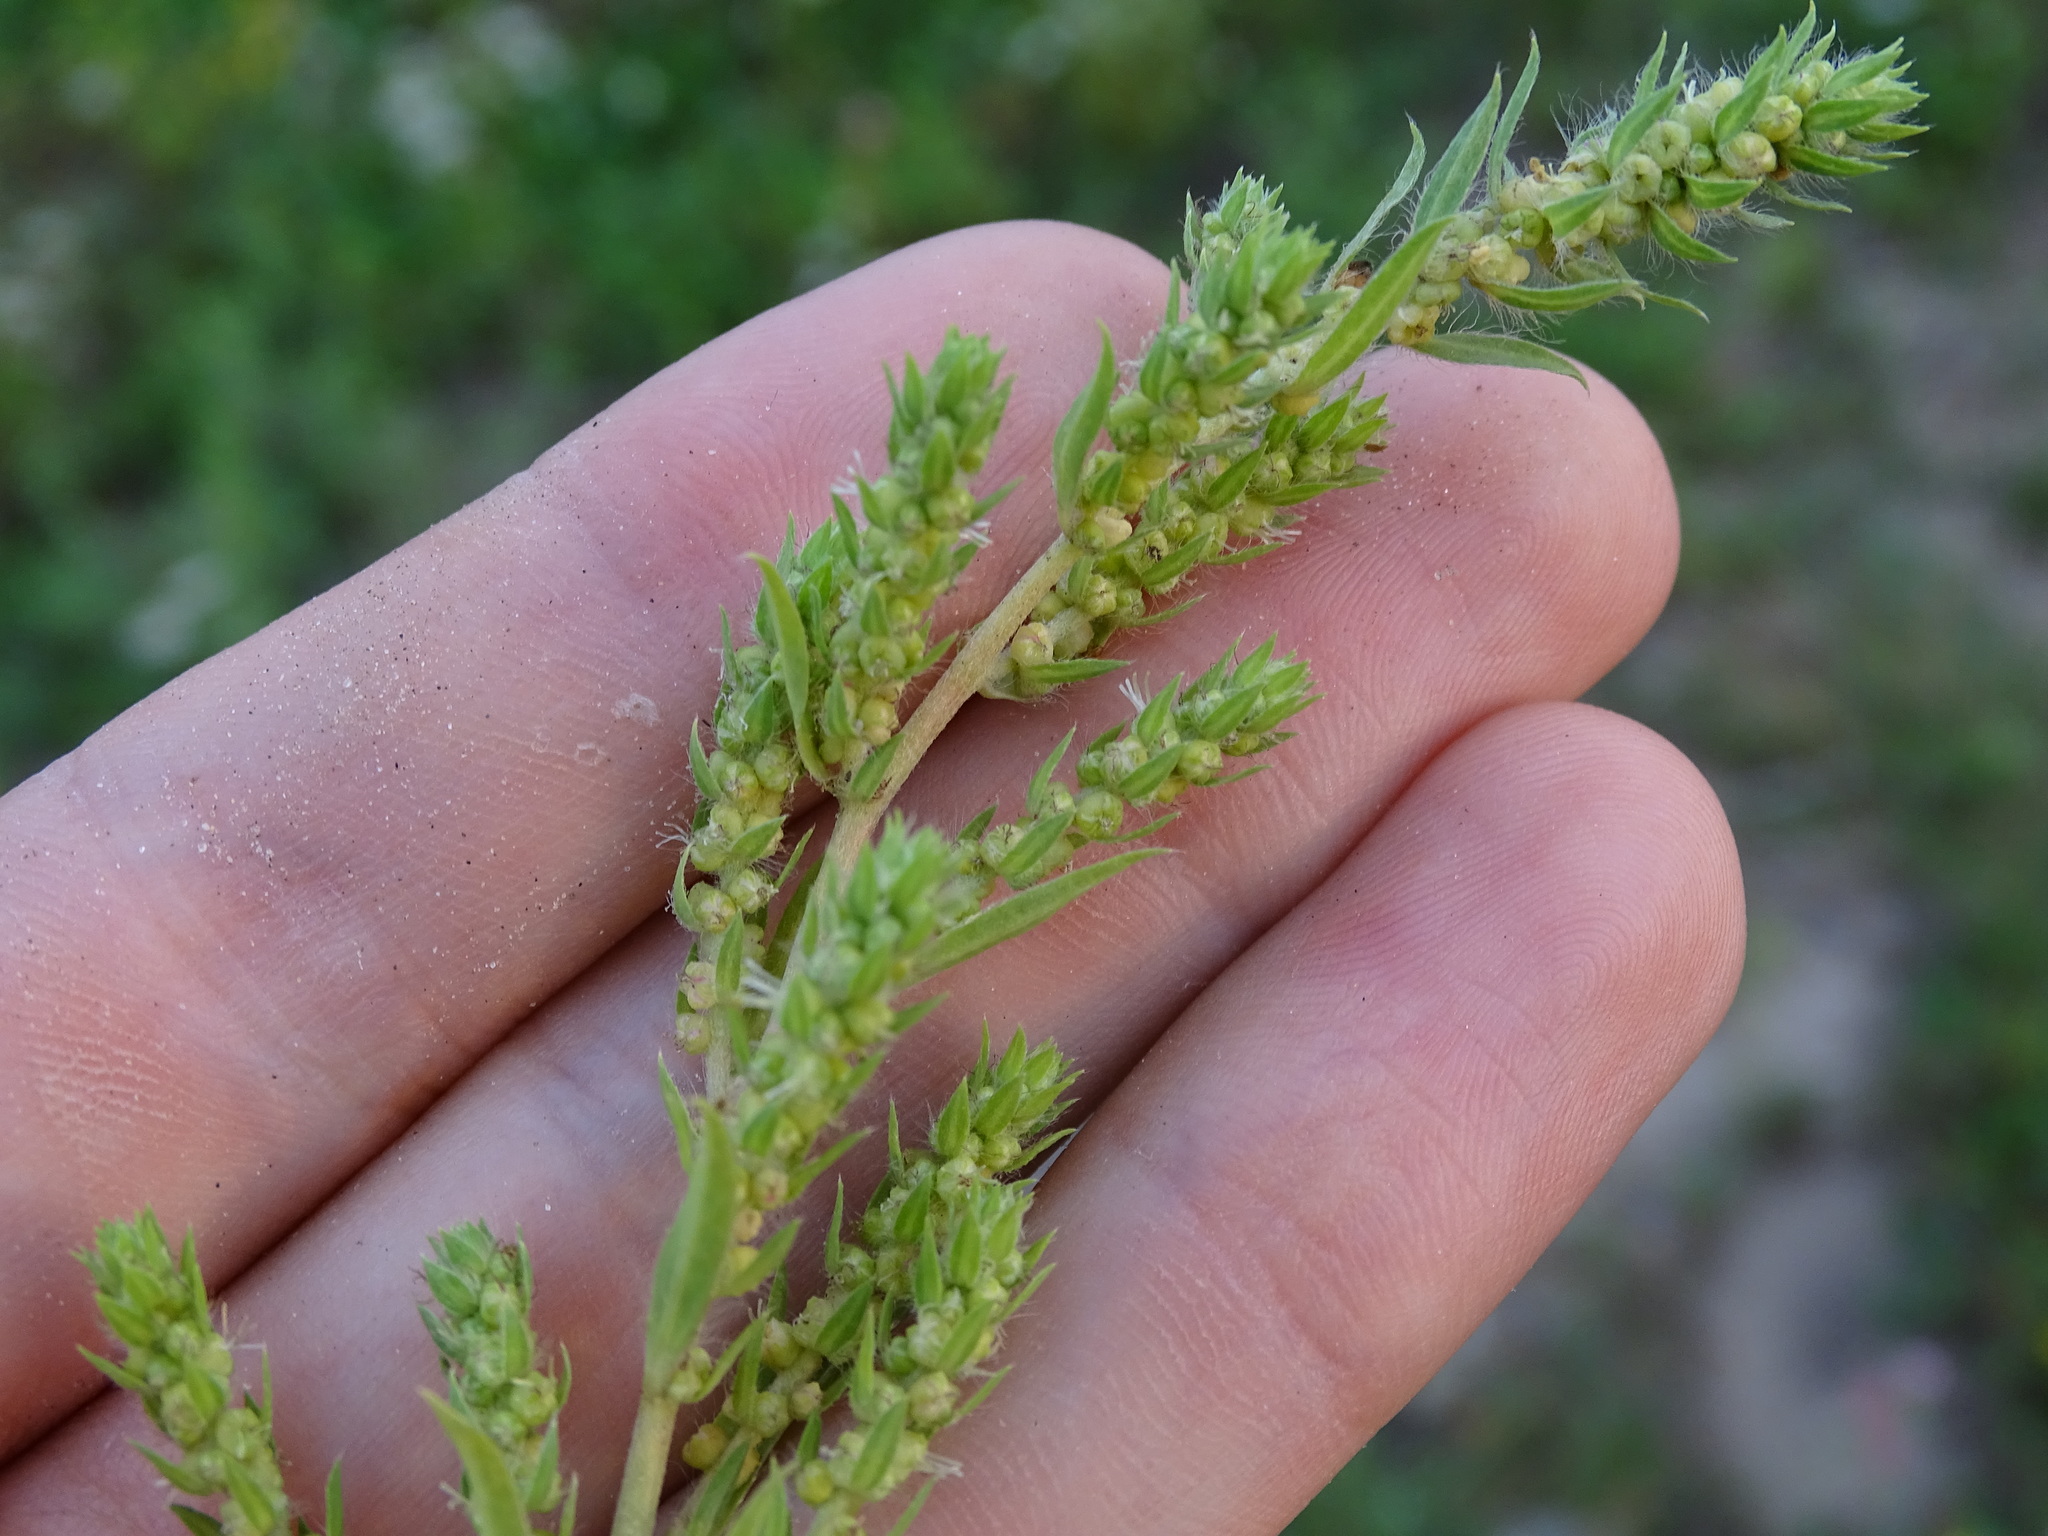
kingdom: Plantae
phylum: Tracheophyta
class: Magnoliopsida
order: Caryophyllales
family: Amaranthaceae
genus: Bassia
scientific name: Bassia scoparia
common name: Belvedere
